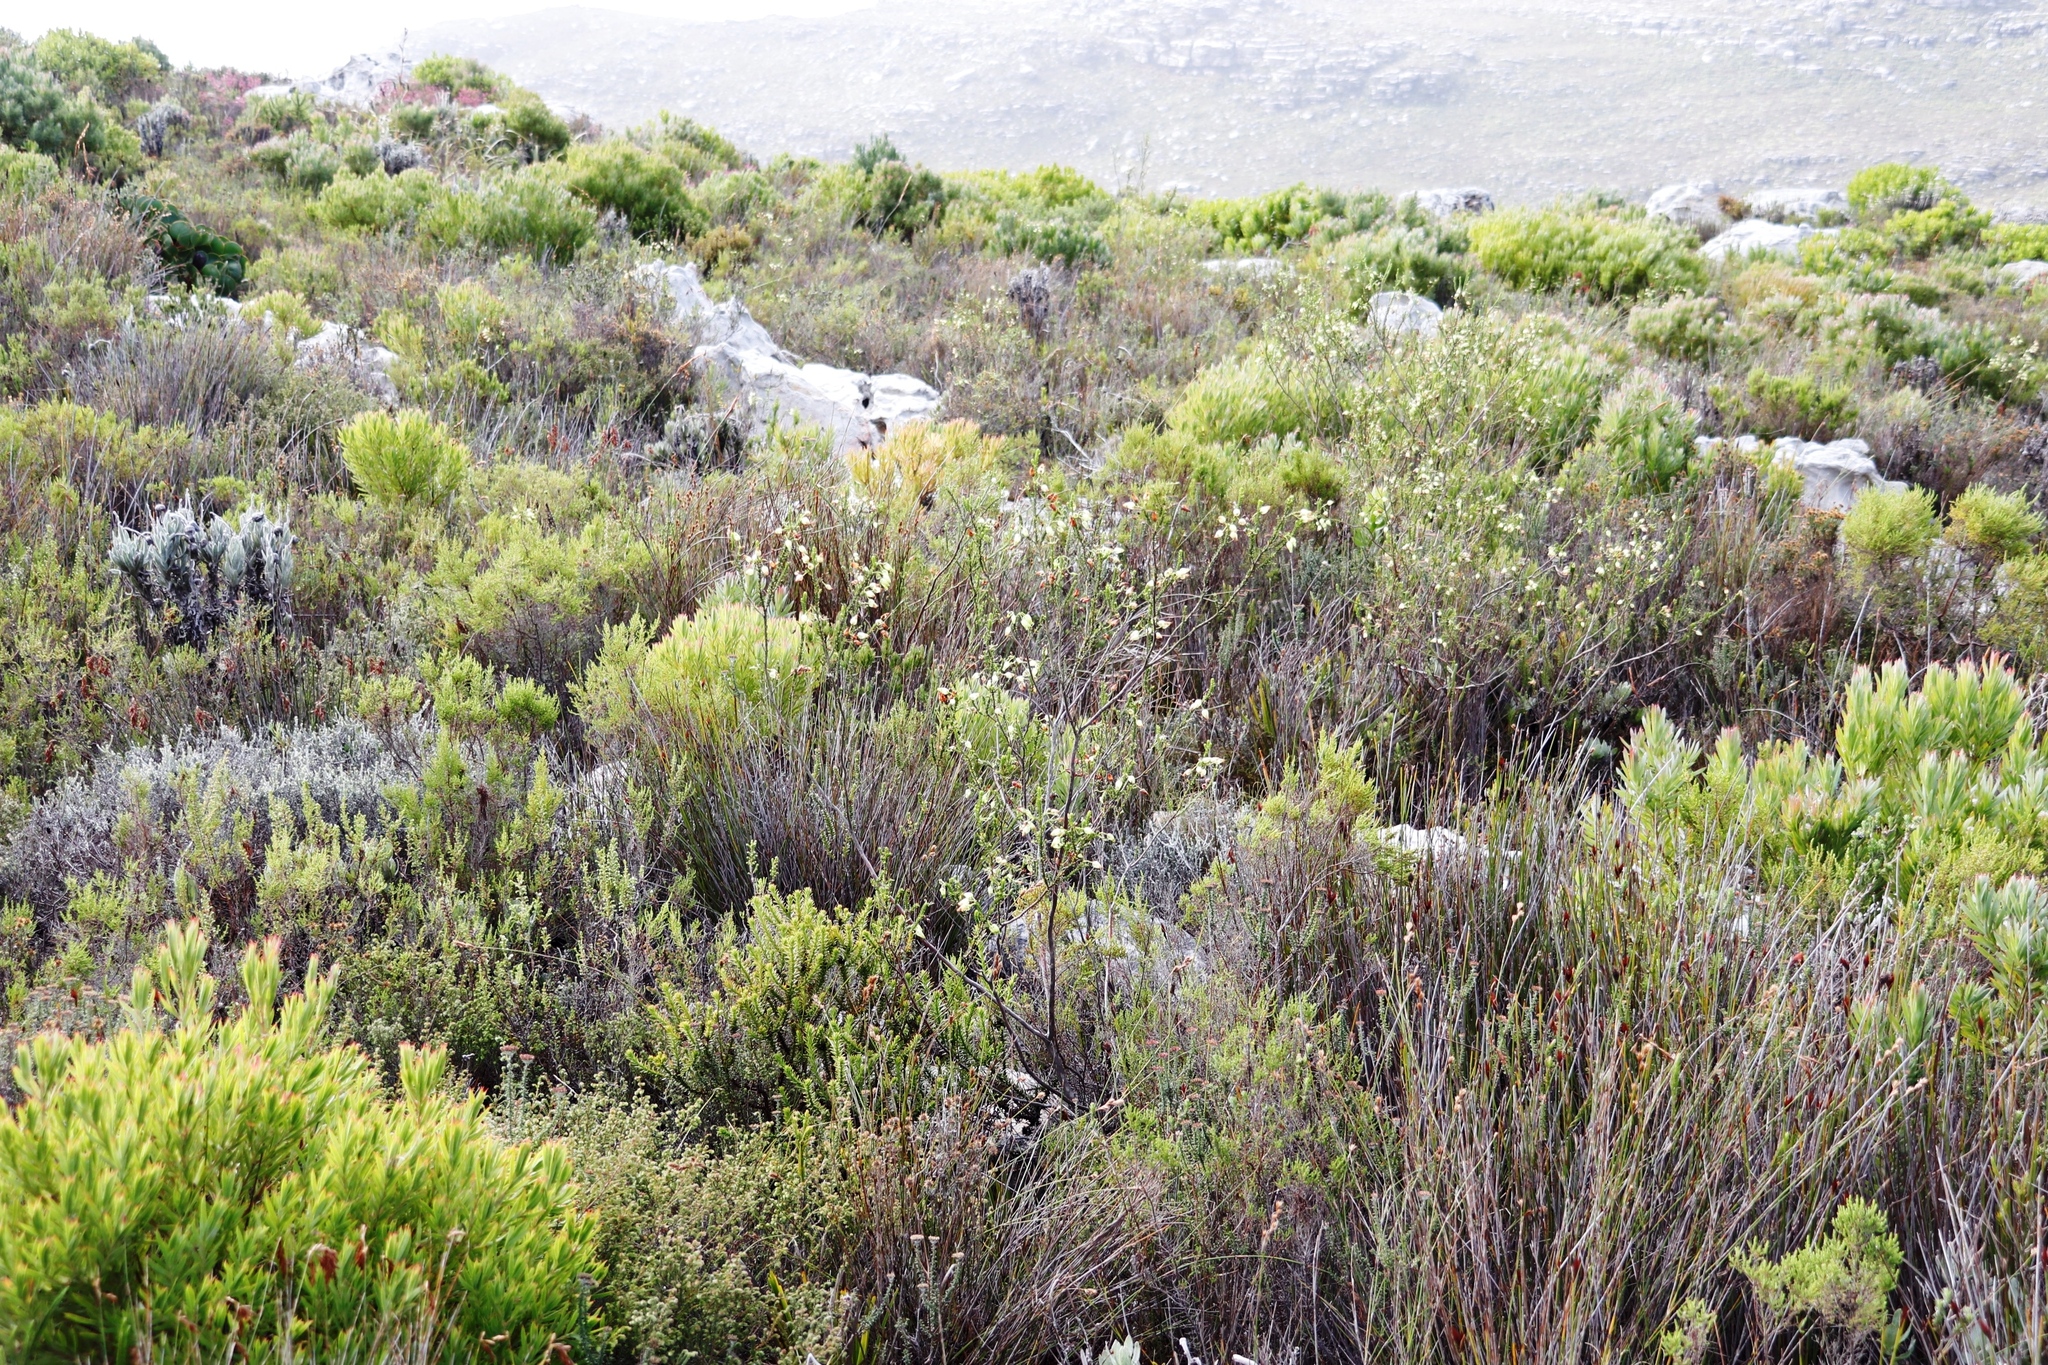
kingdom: Plantae
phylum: Tracheophyta
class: Magnoliopsida
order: Ericales
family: Ericaceae
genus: Erica
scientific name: Erica urna-viridis
